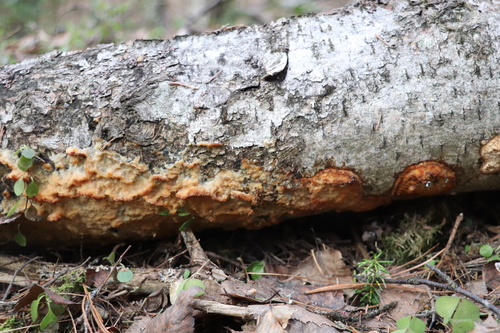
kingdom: Fungi
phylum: Basidiomycota
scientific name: Basidiomycota
